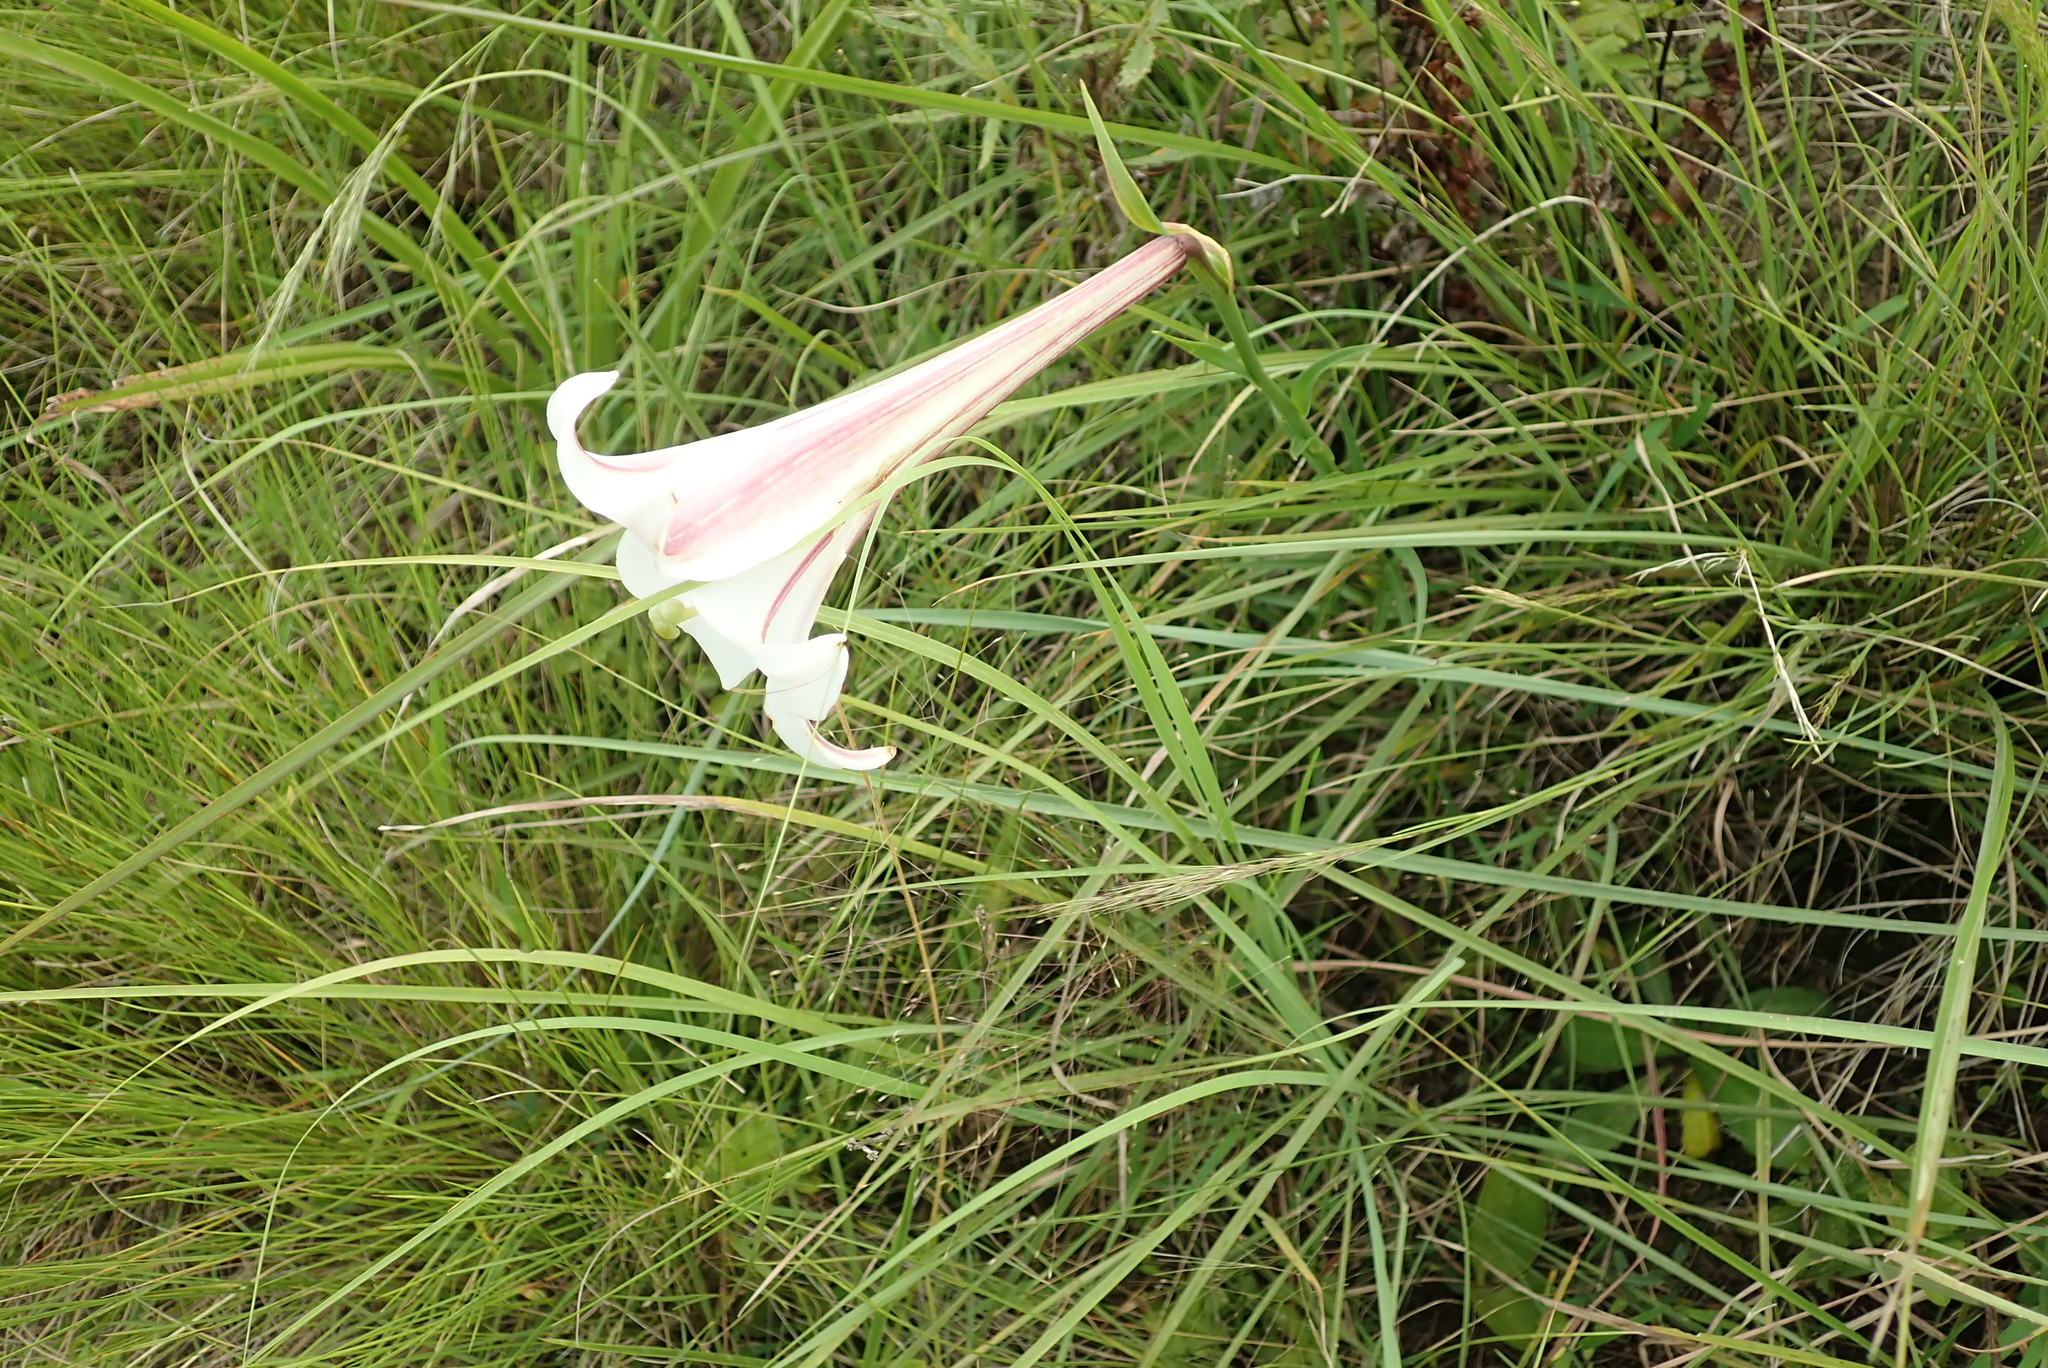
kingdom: Plantae
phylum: Tracheophyta
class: Liliopsida
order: Liliales
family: Liliaceae
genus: Lilium
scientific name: Lilium formosanum
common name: Formosa lily
